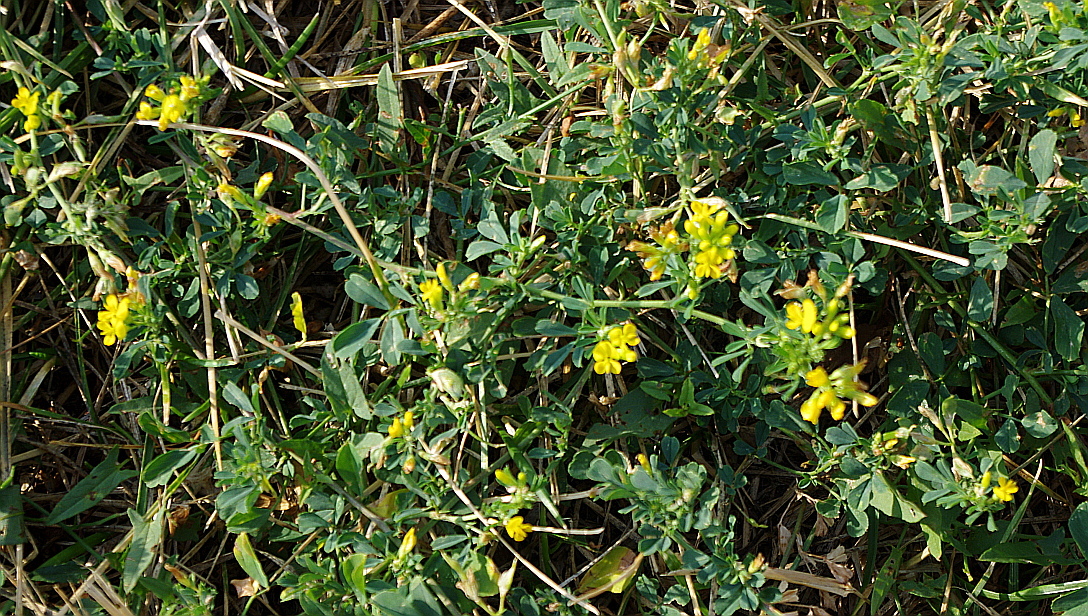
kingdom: Plantae
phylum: Tracheophyta
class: Magnoliopsida
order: Fabales
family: Fabaceae
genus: Medicago
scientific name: Medicago falcata
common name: Sickle medick
